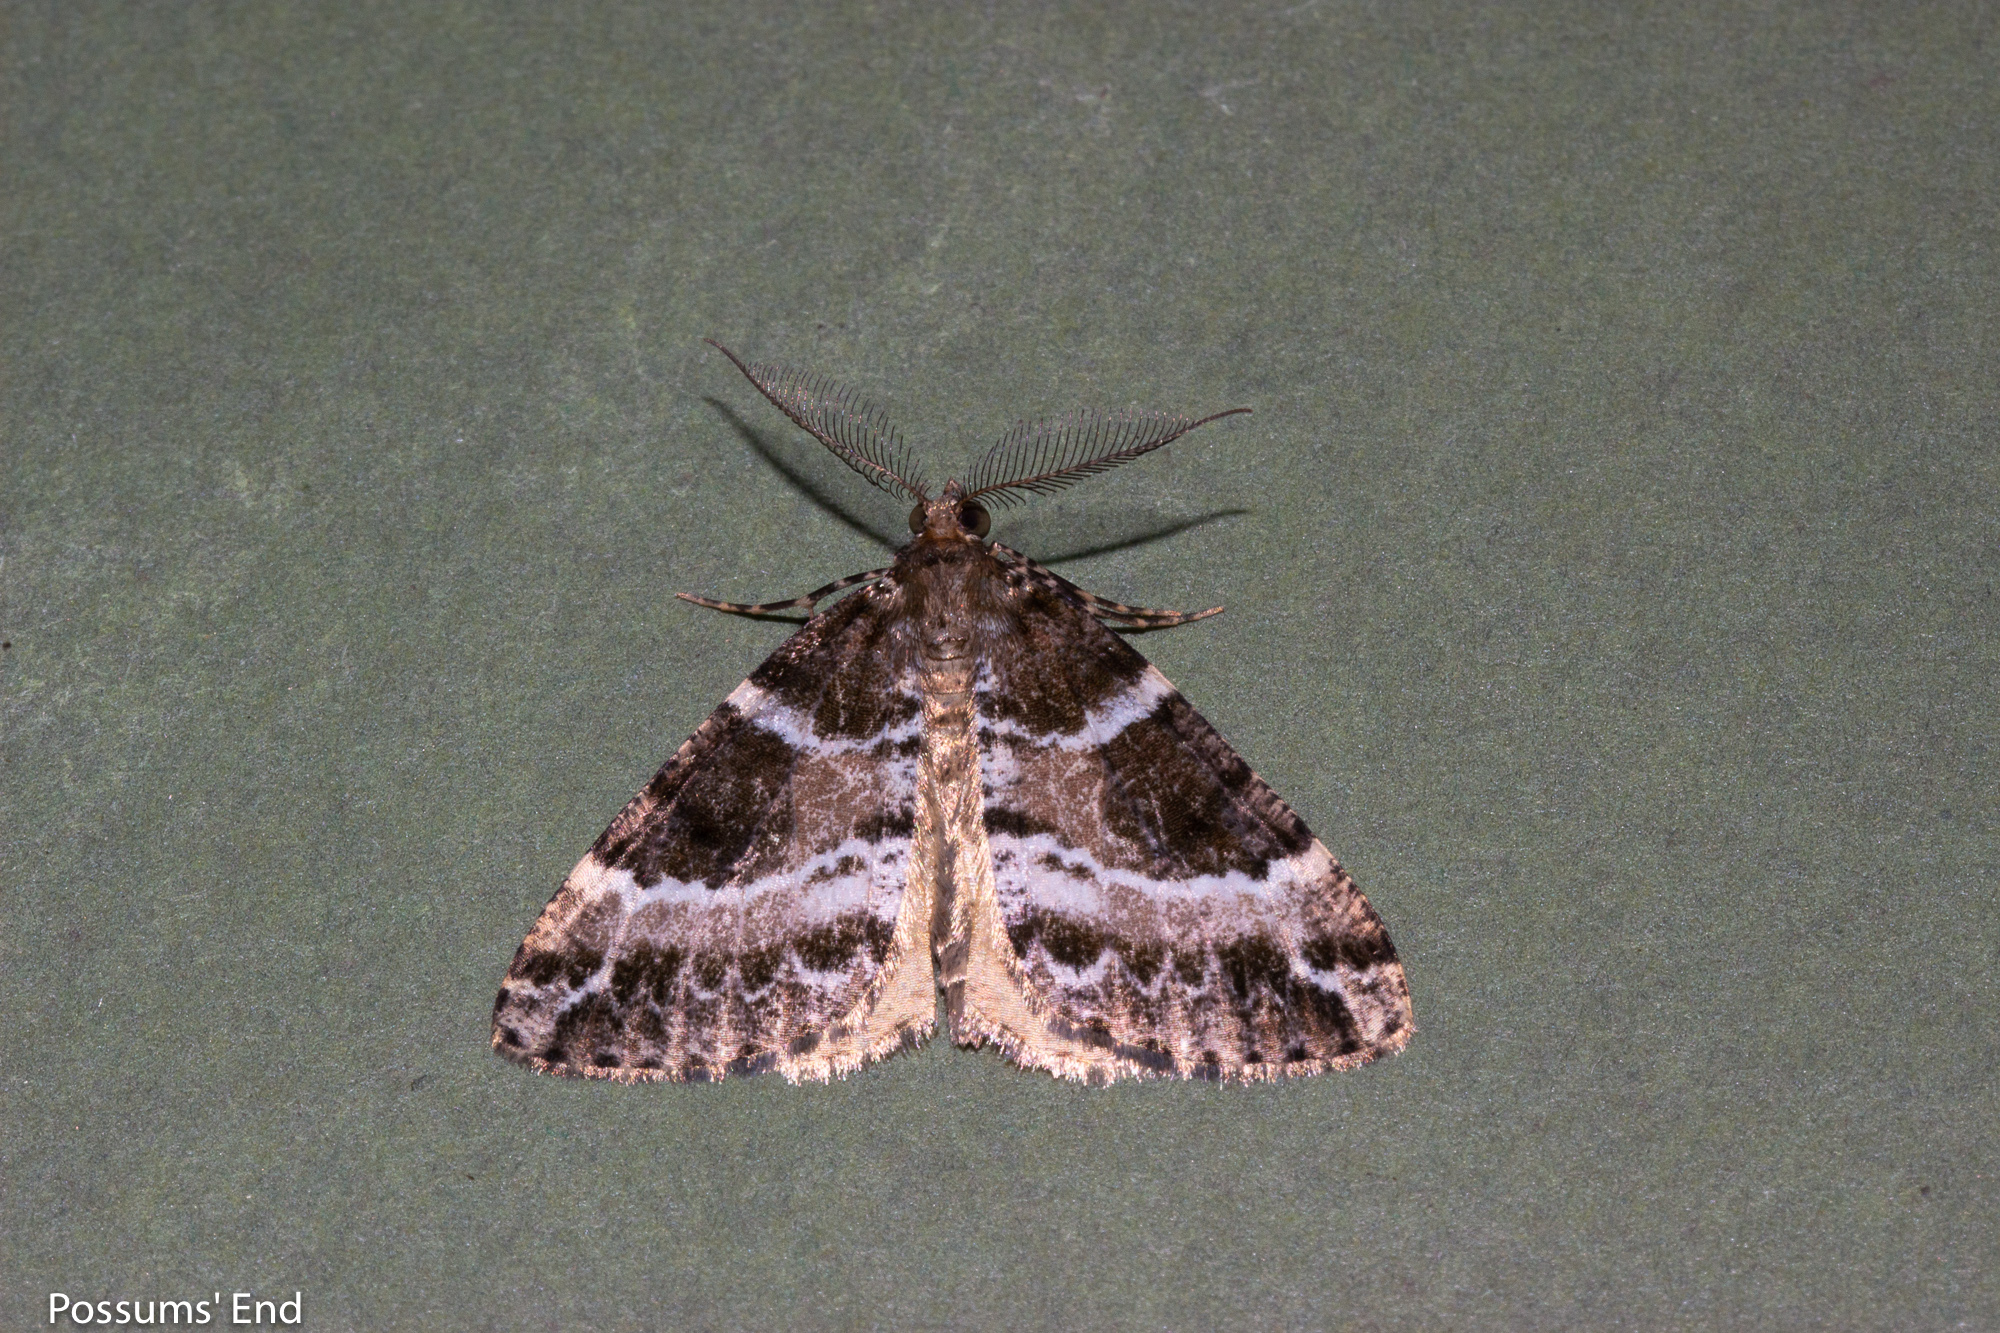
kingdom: Animalia
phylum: Arthropoda
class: Insecta
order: Lepidoptera
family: Geometridae
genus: Pseudocoremia
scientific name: Pseudocoremia
